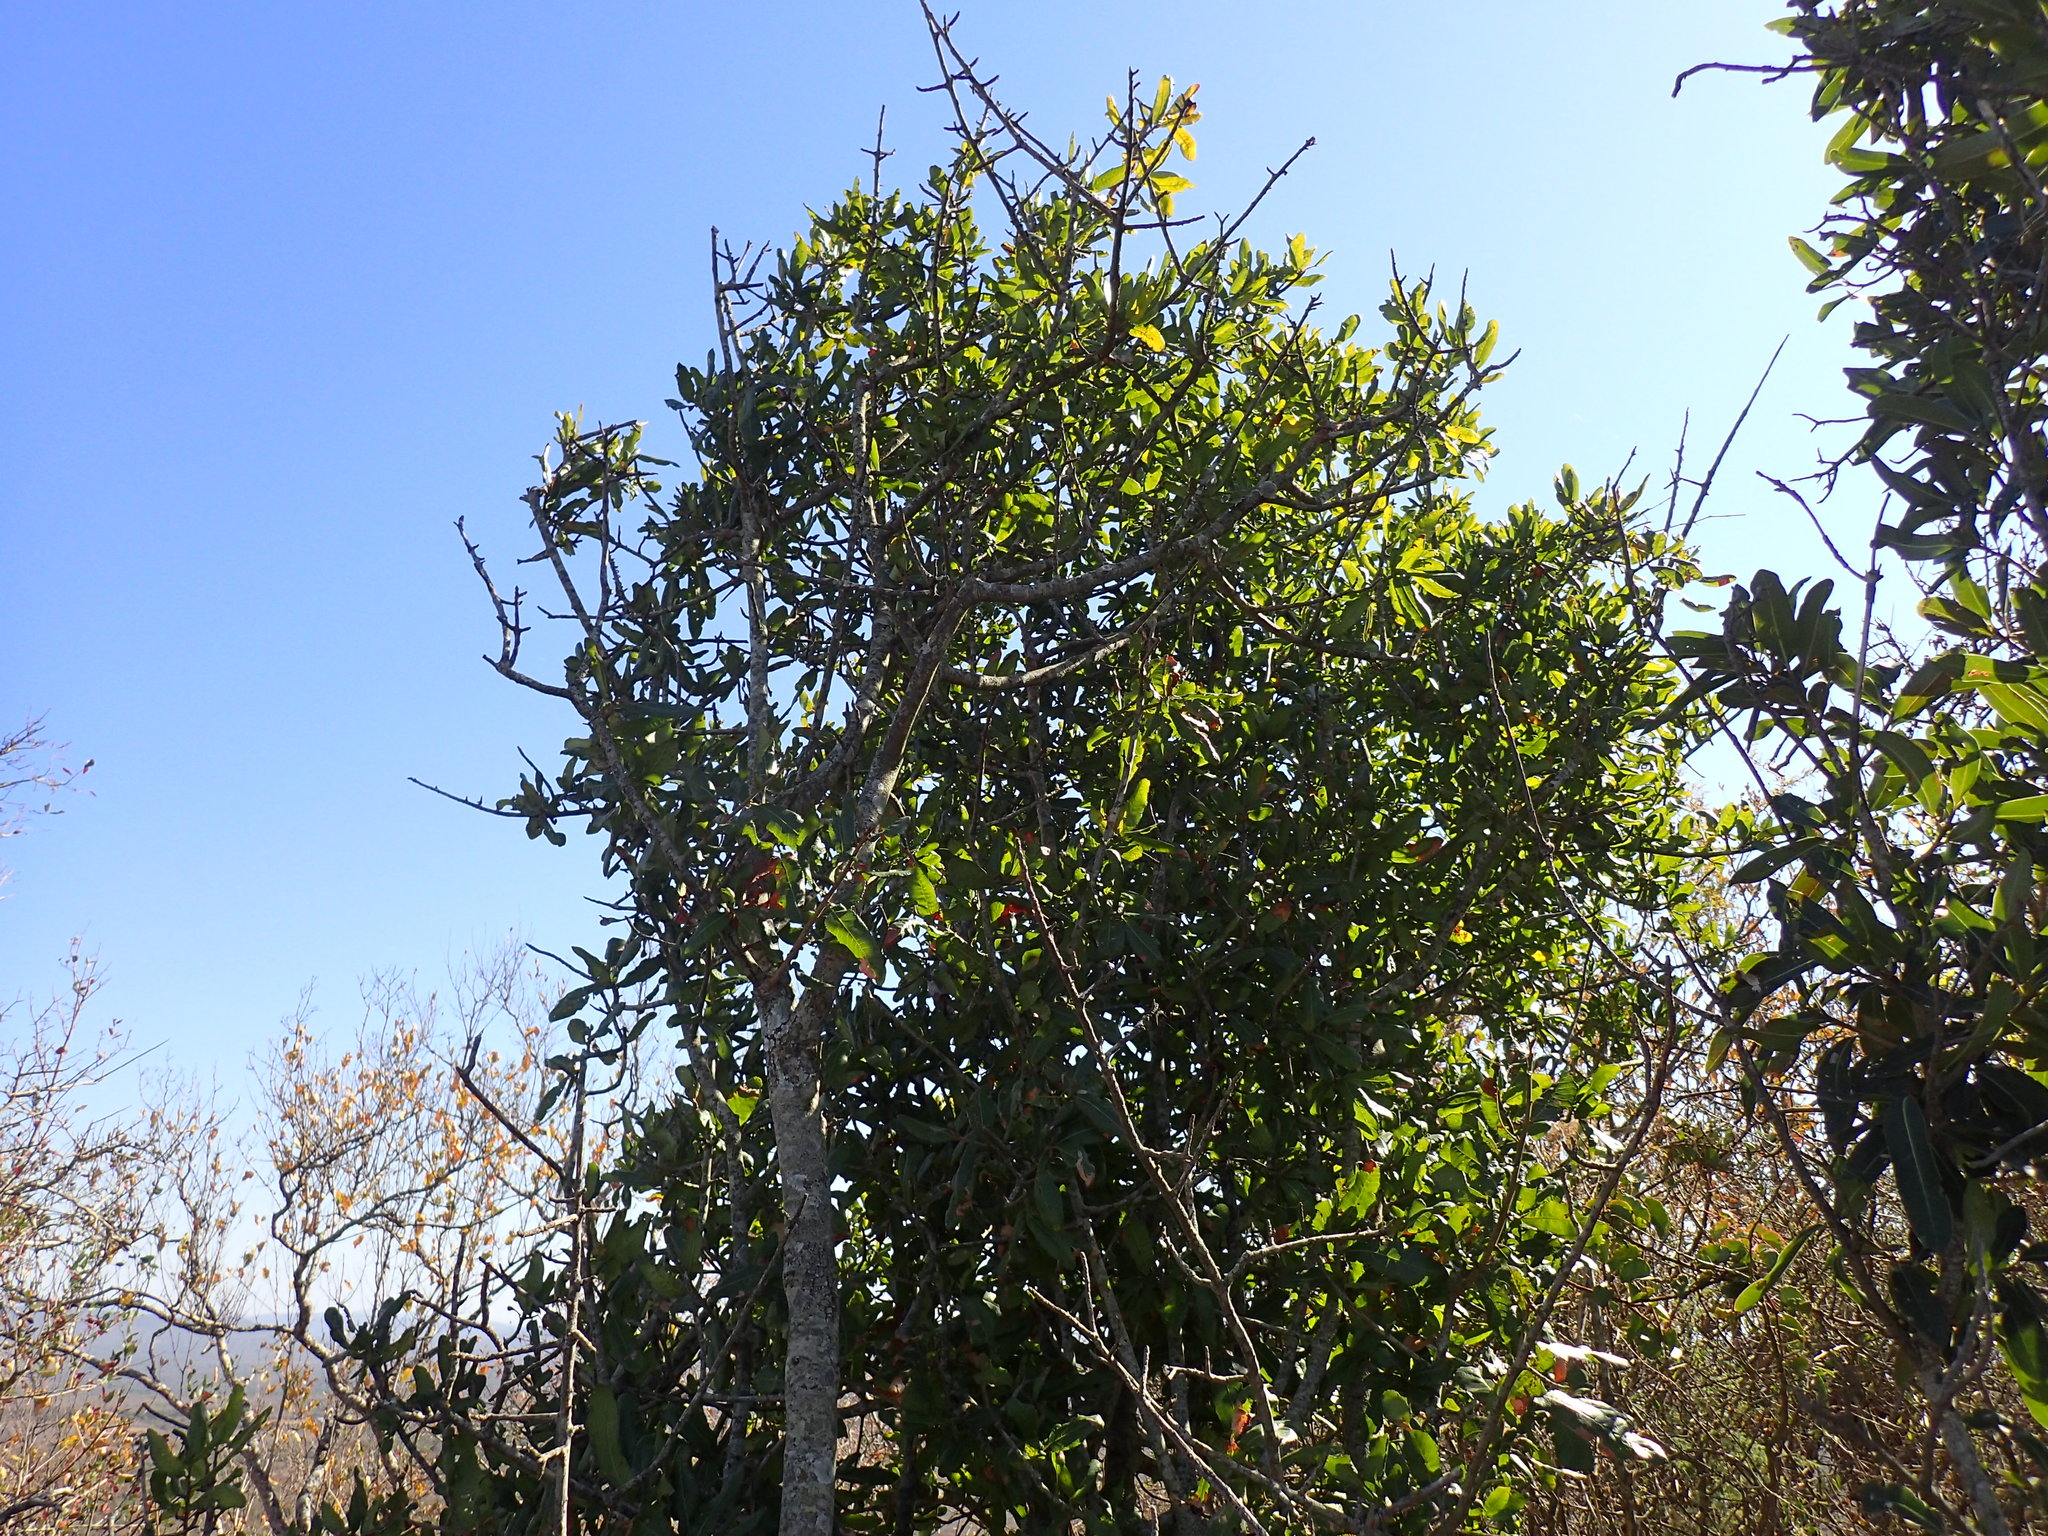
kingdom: Plantae
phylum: Tracheophyta
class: Magnoliopsida
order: Sapindales
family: Sapindaceae
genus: Pappea
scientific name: Pappea capensis
